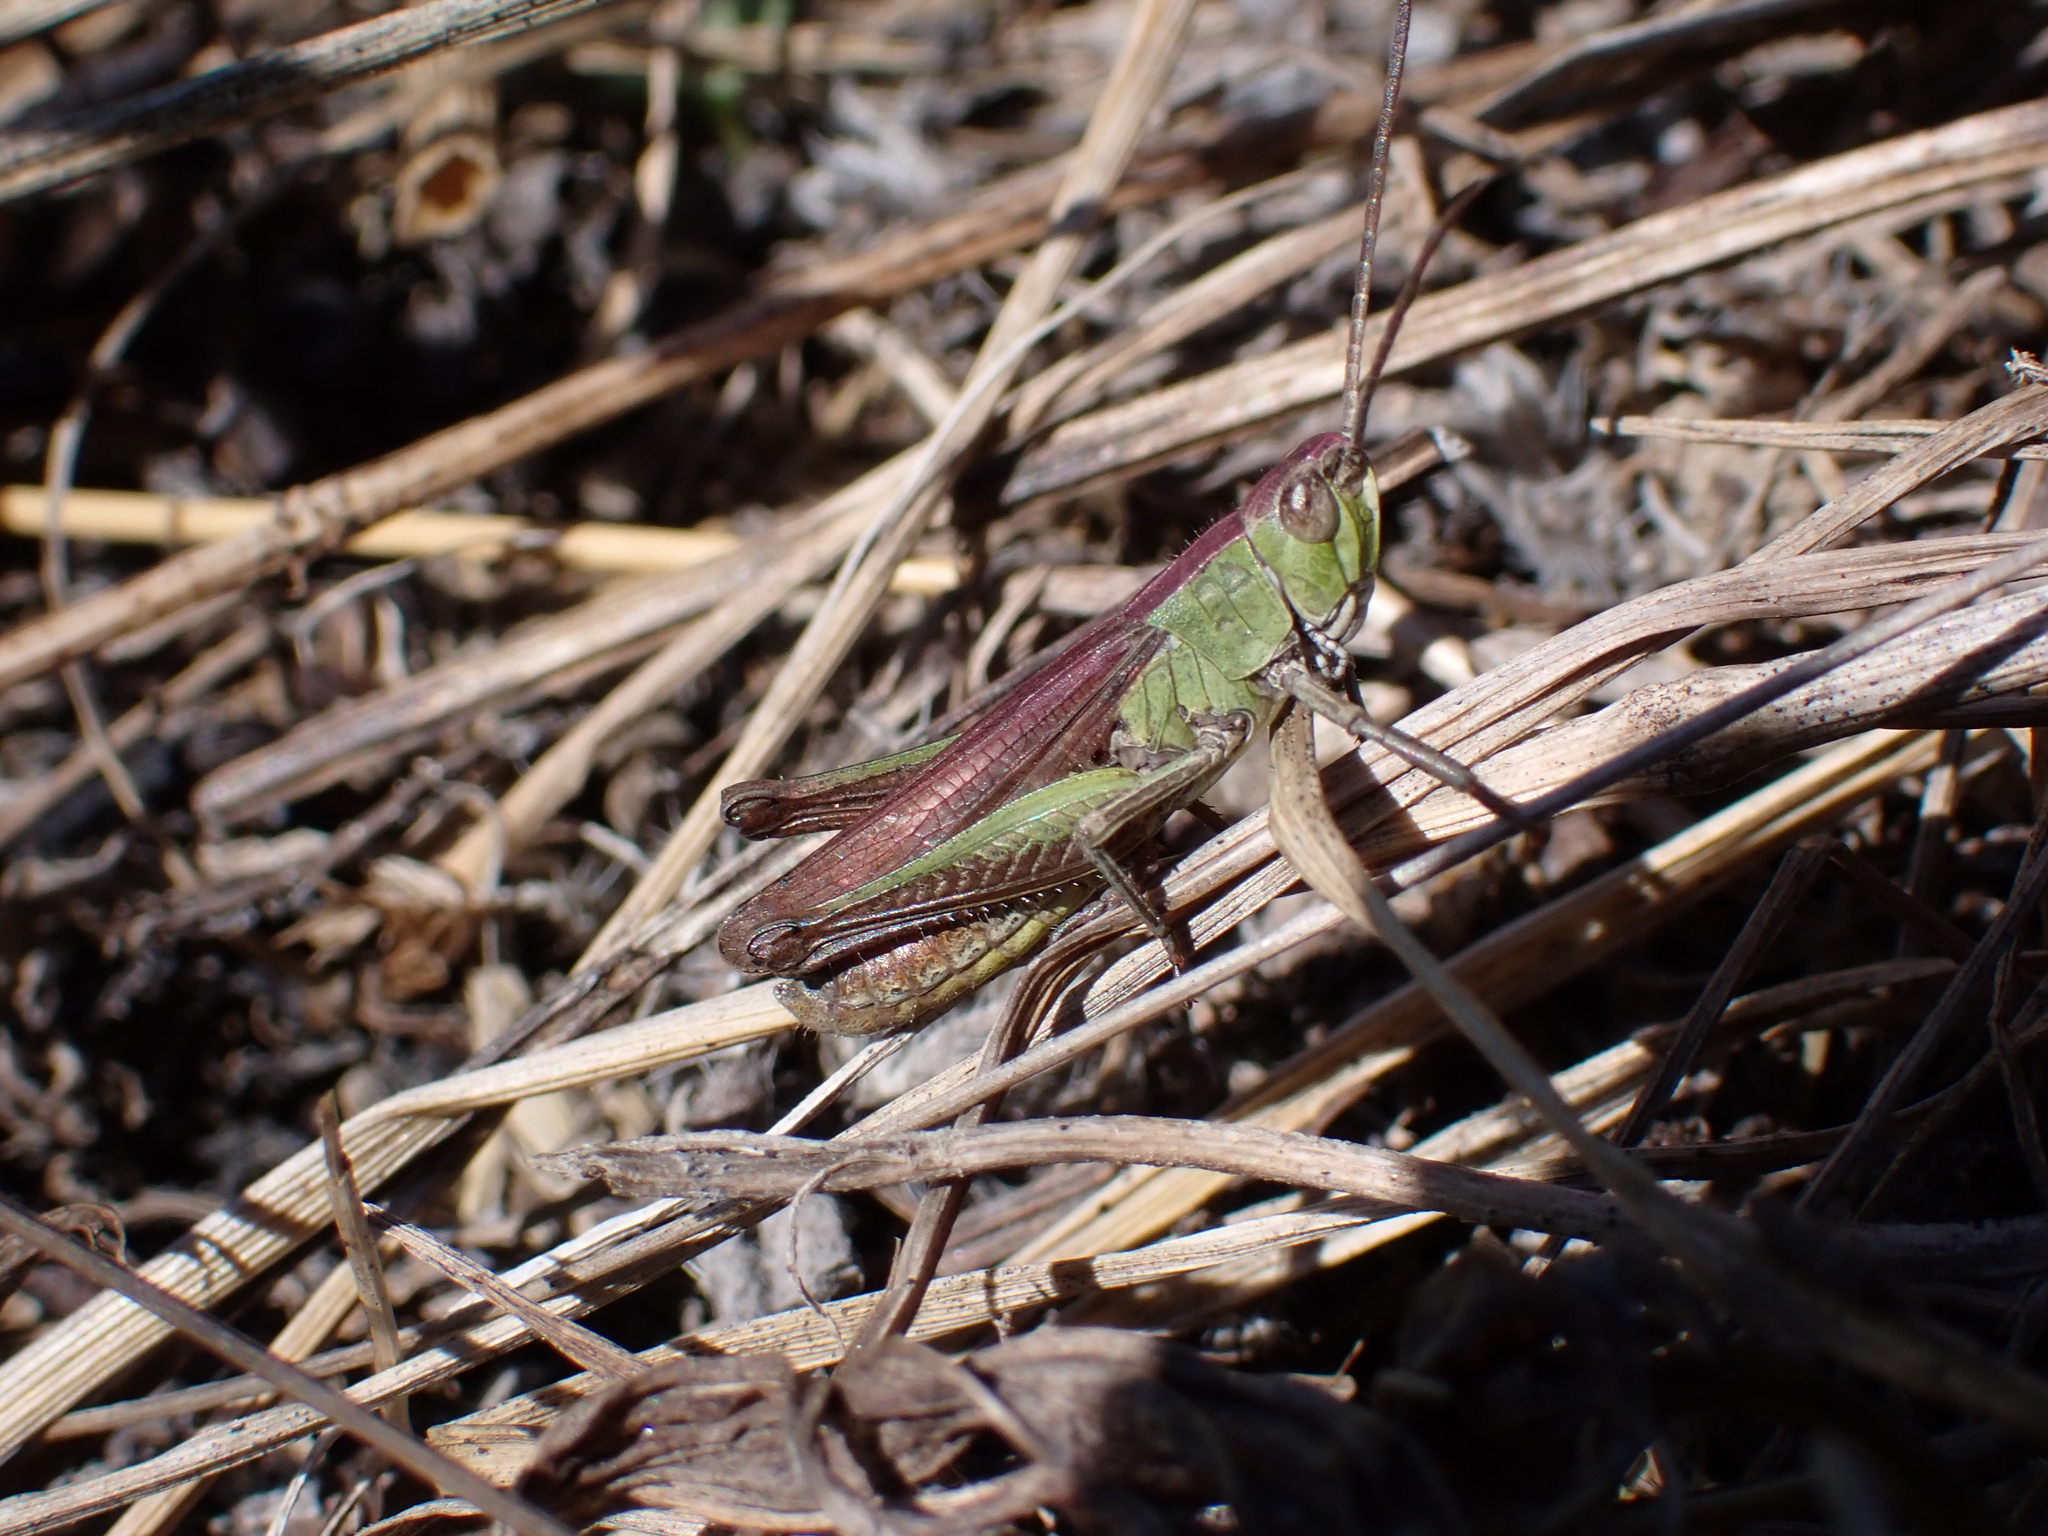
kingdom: Animalia
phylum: Arthropoda
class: Insecta
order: Orthoptera
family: Acrididae
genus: Chorthippus
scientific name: Chorthippus dorsatus
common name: Steppe grasshopper
